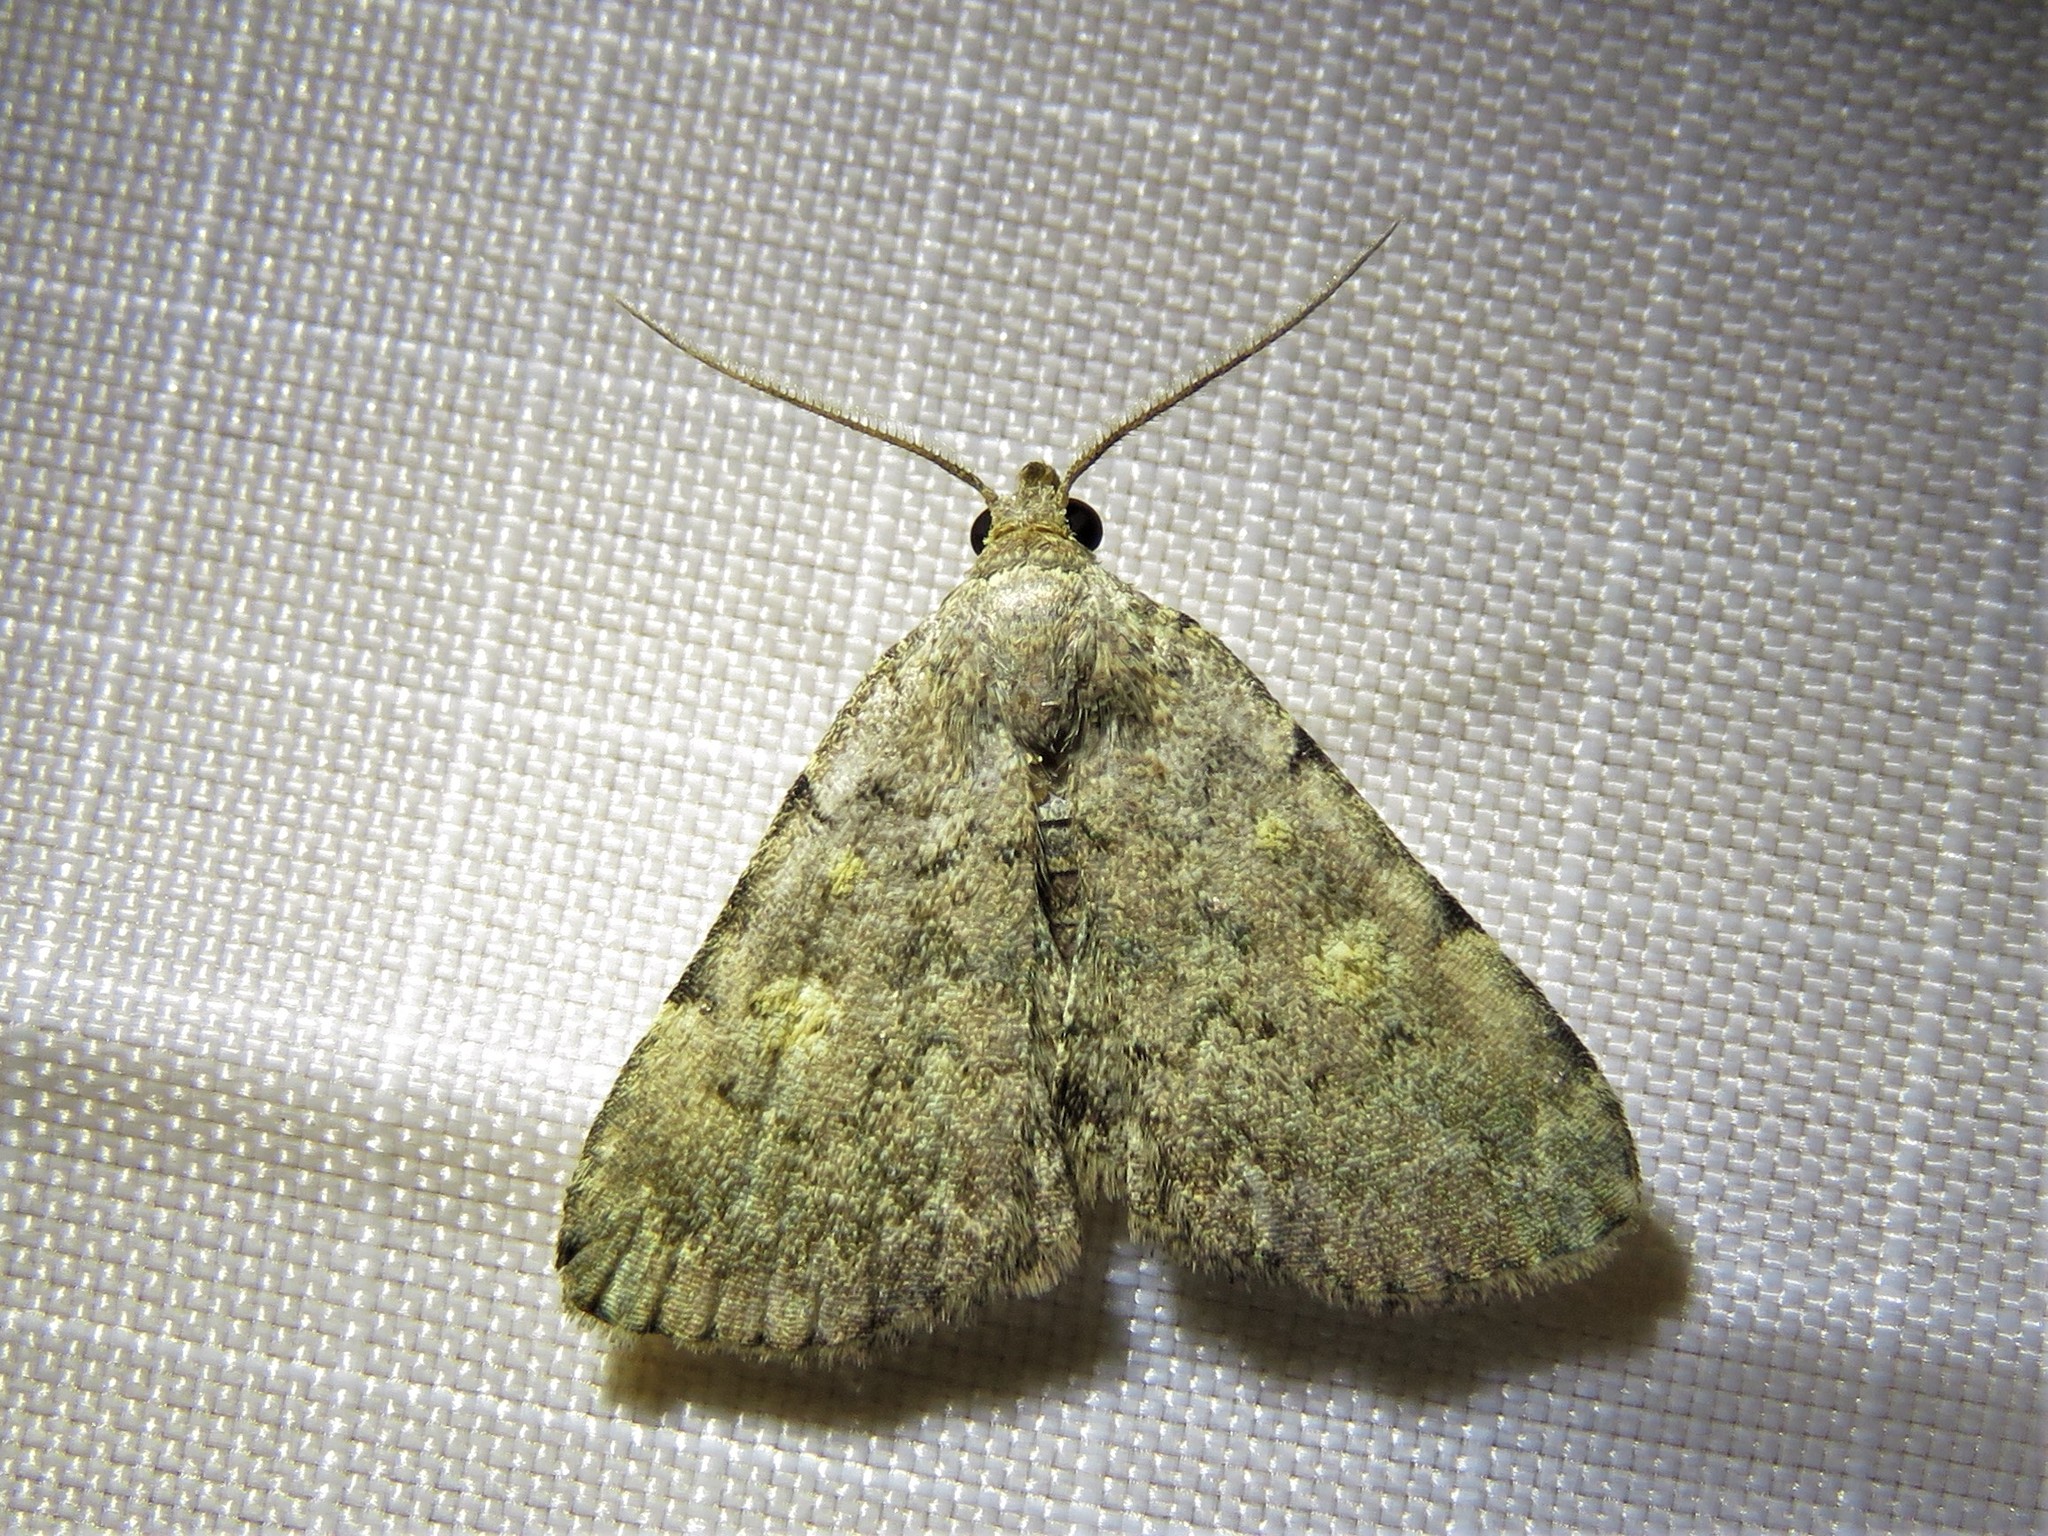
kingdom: Animalia
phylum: Arthropoda
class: Insecta
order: Lepidoptera
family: Erebidae
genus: Idia
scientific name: Idia aemula
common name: Common idia moth
